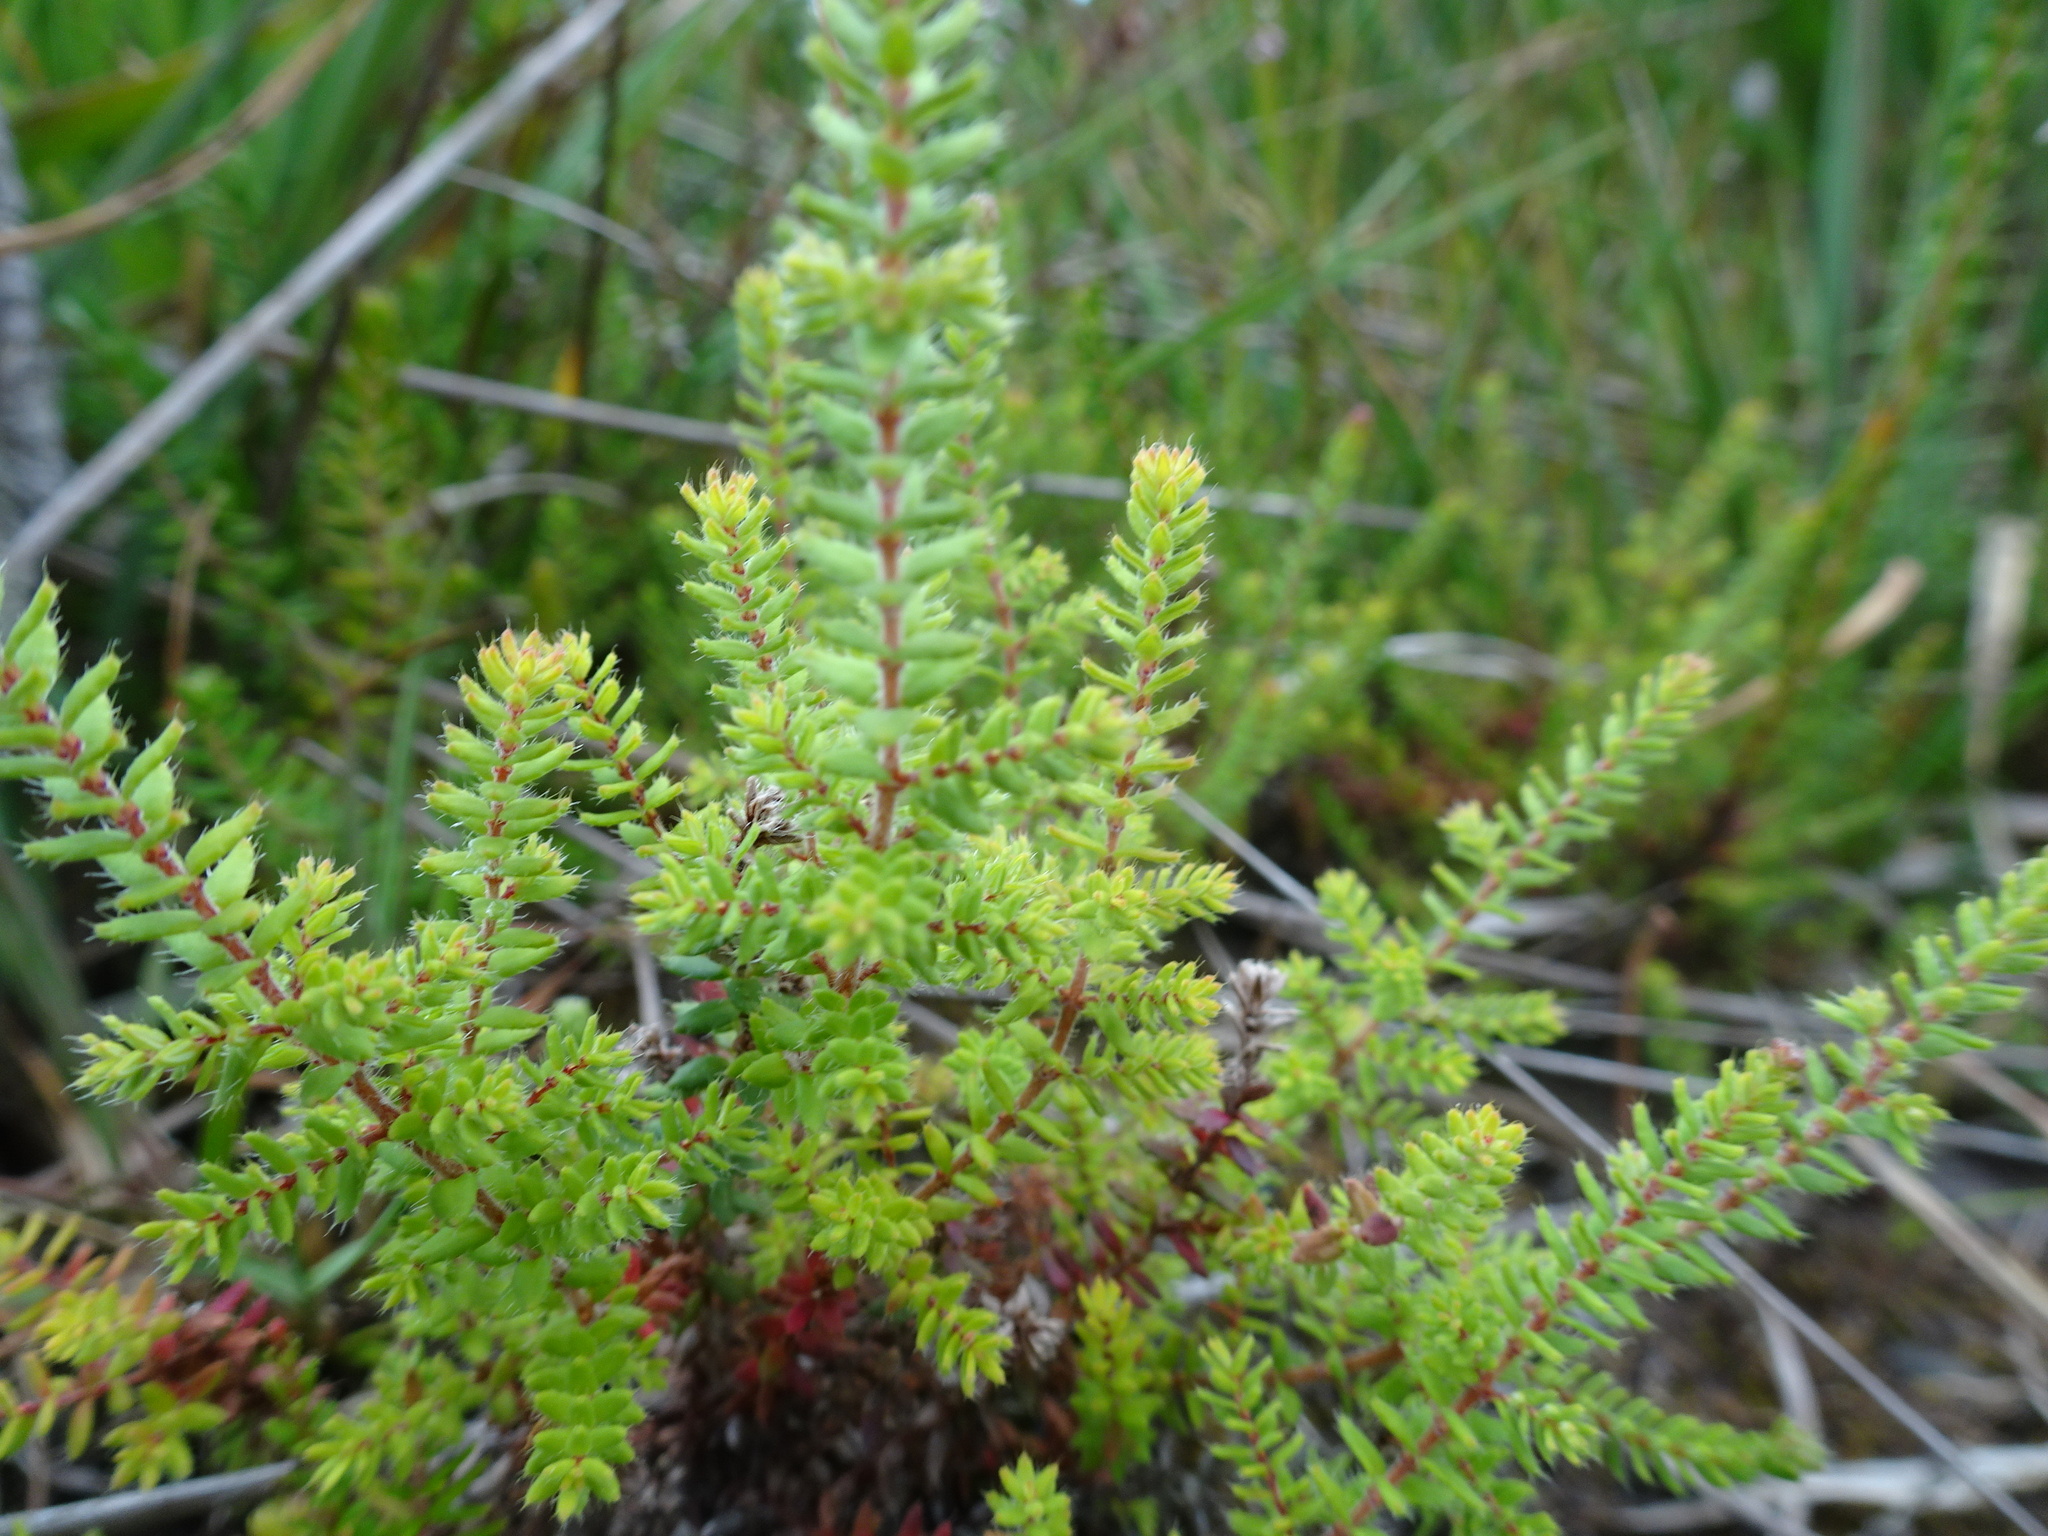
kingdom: Plantae
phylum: Tracheophyta
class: Magnoliopsida
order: Ericales
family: Ericaceae
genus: Erica
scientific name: Erica ciliaris
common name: Dorset heath
